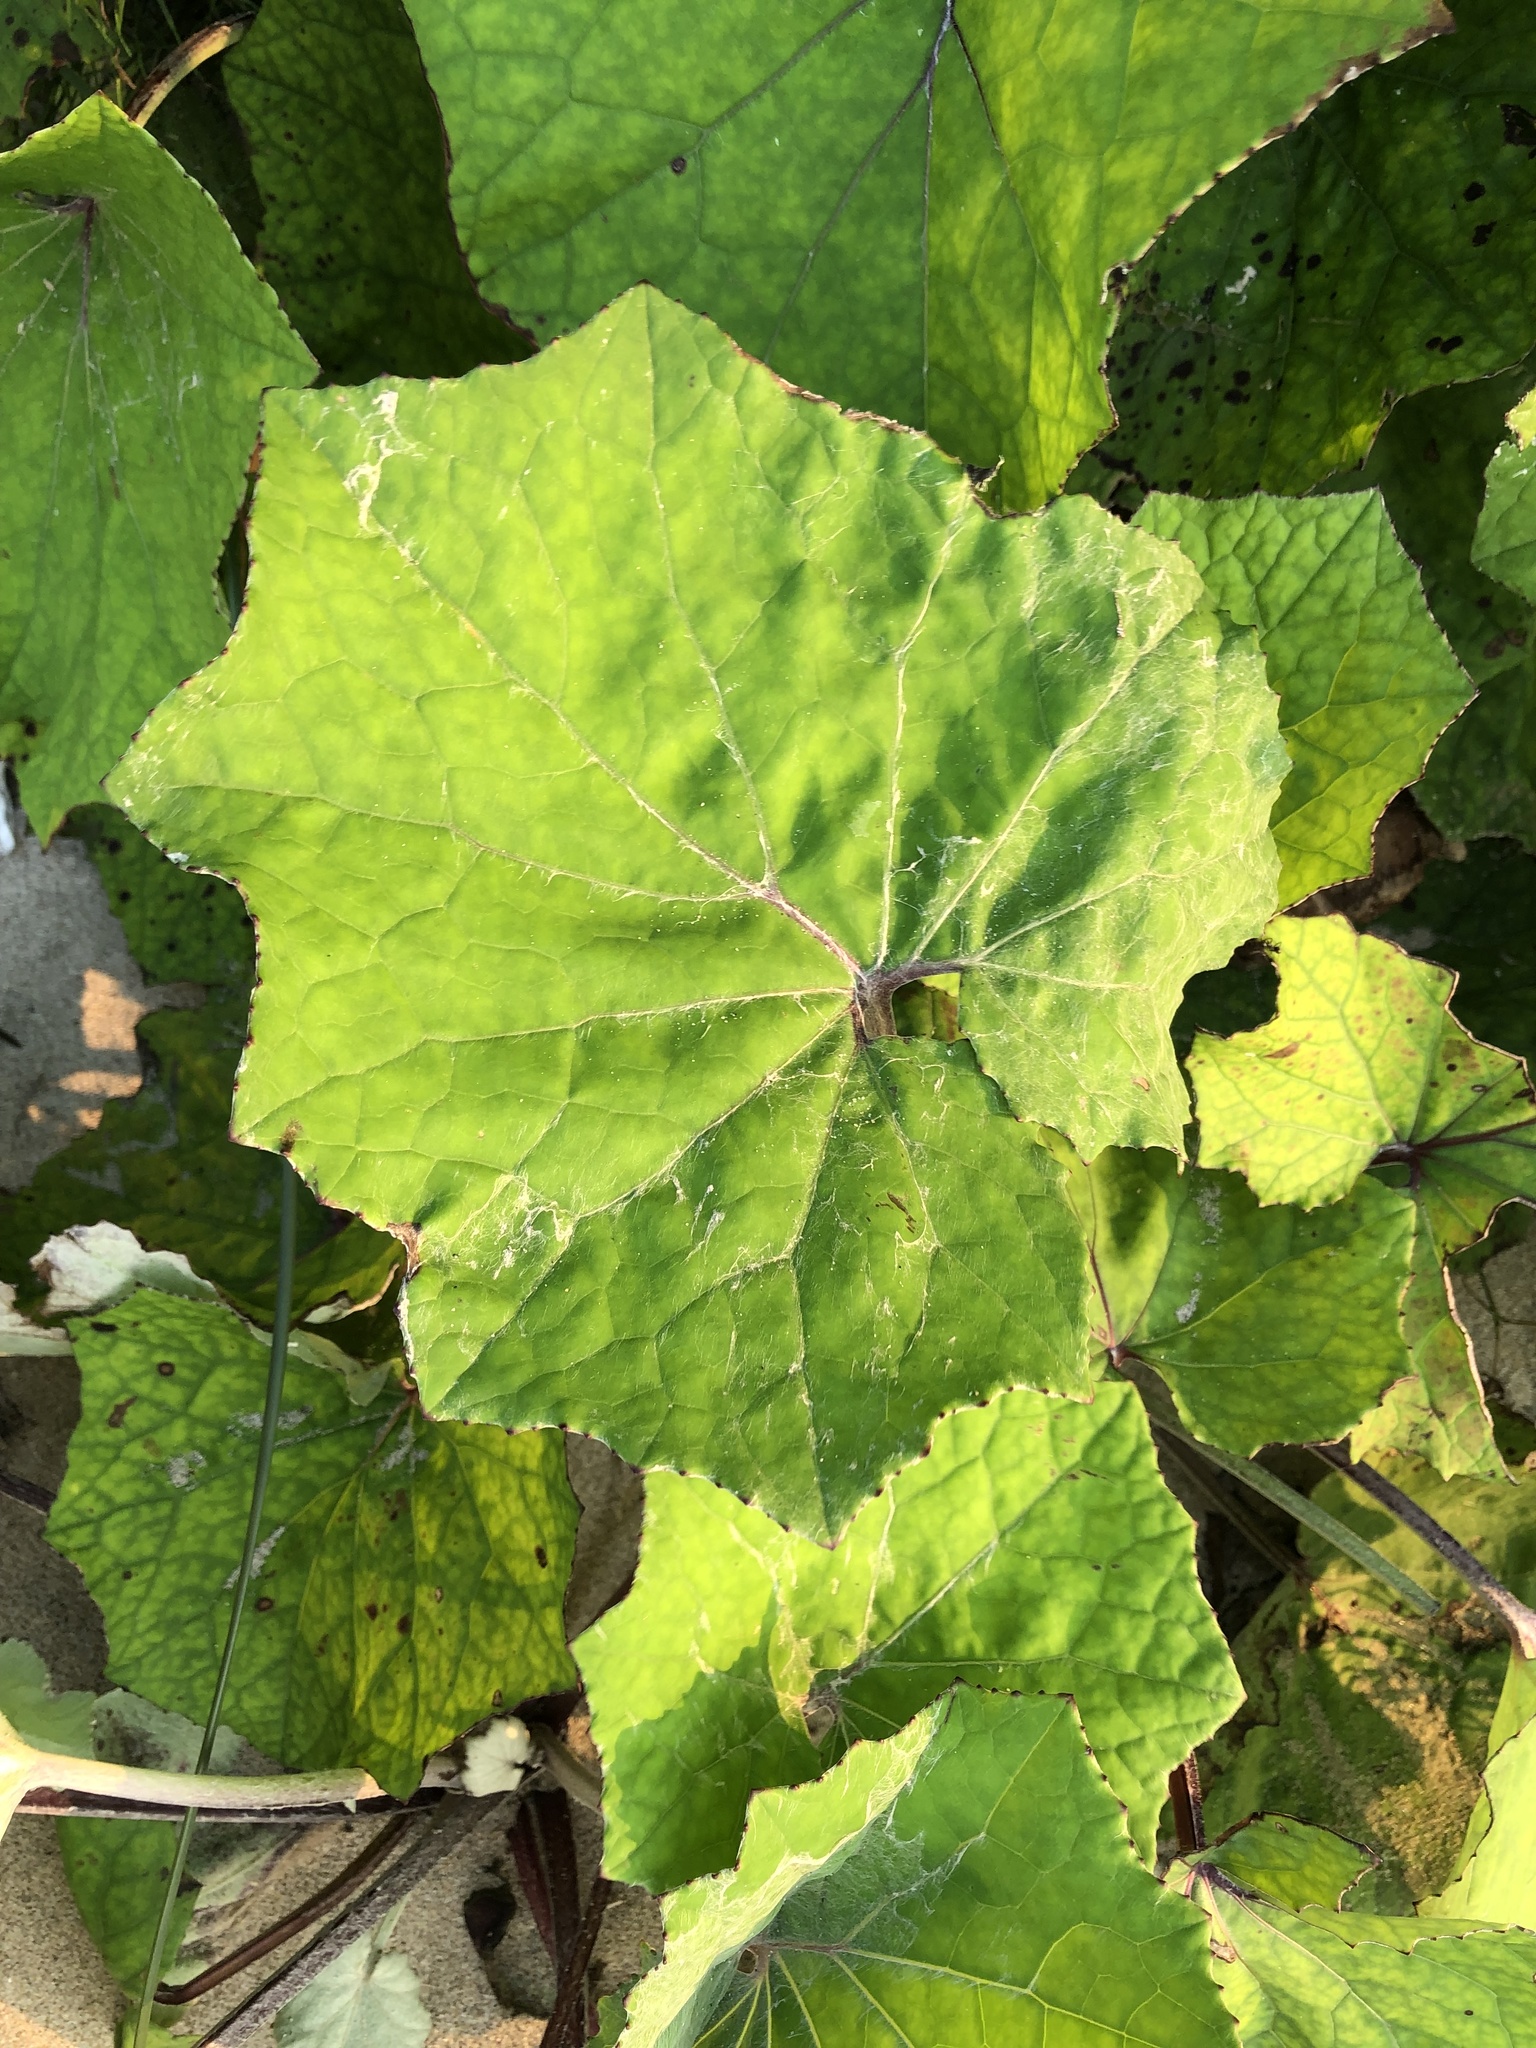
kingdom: Plantae
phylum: Tracheophyta
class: Magnoliopsida
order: Asterales
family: Asteraceae
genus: Tussilago
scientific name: Tussilago farfara
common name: Coltsfoot
